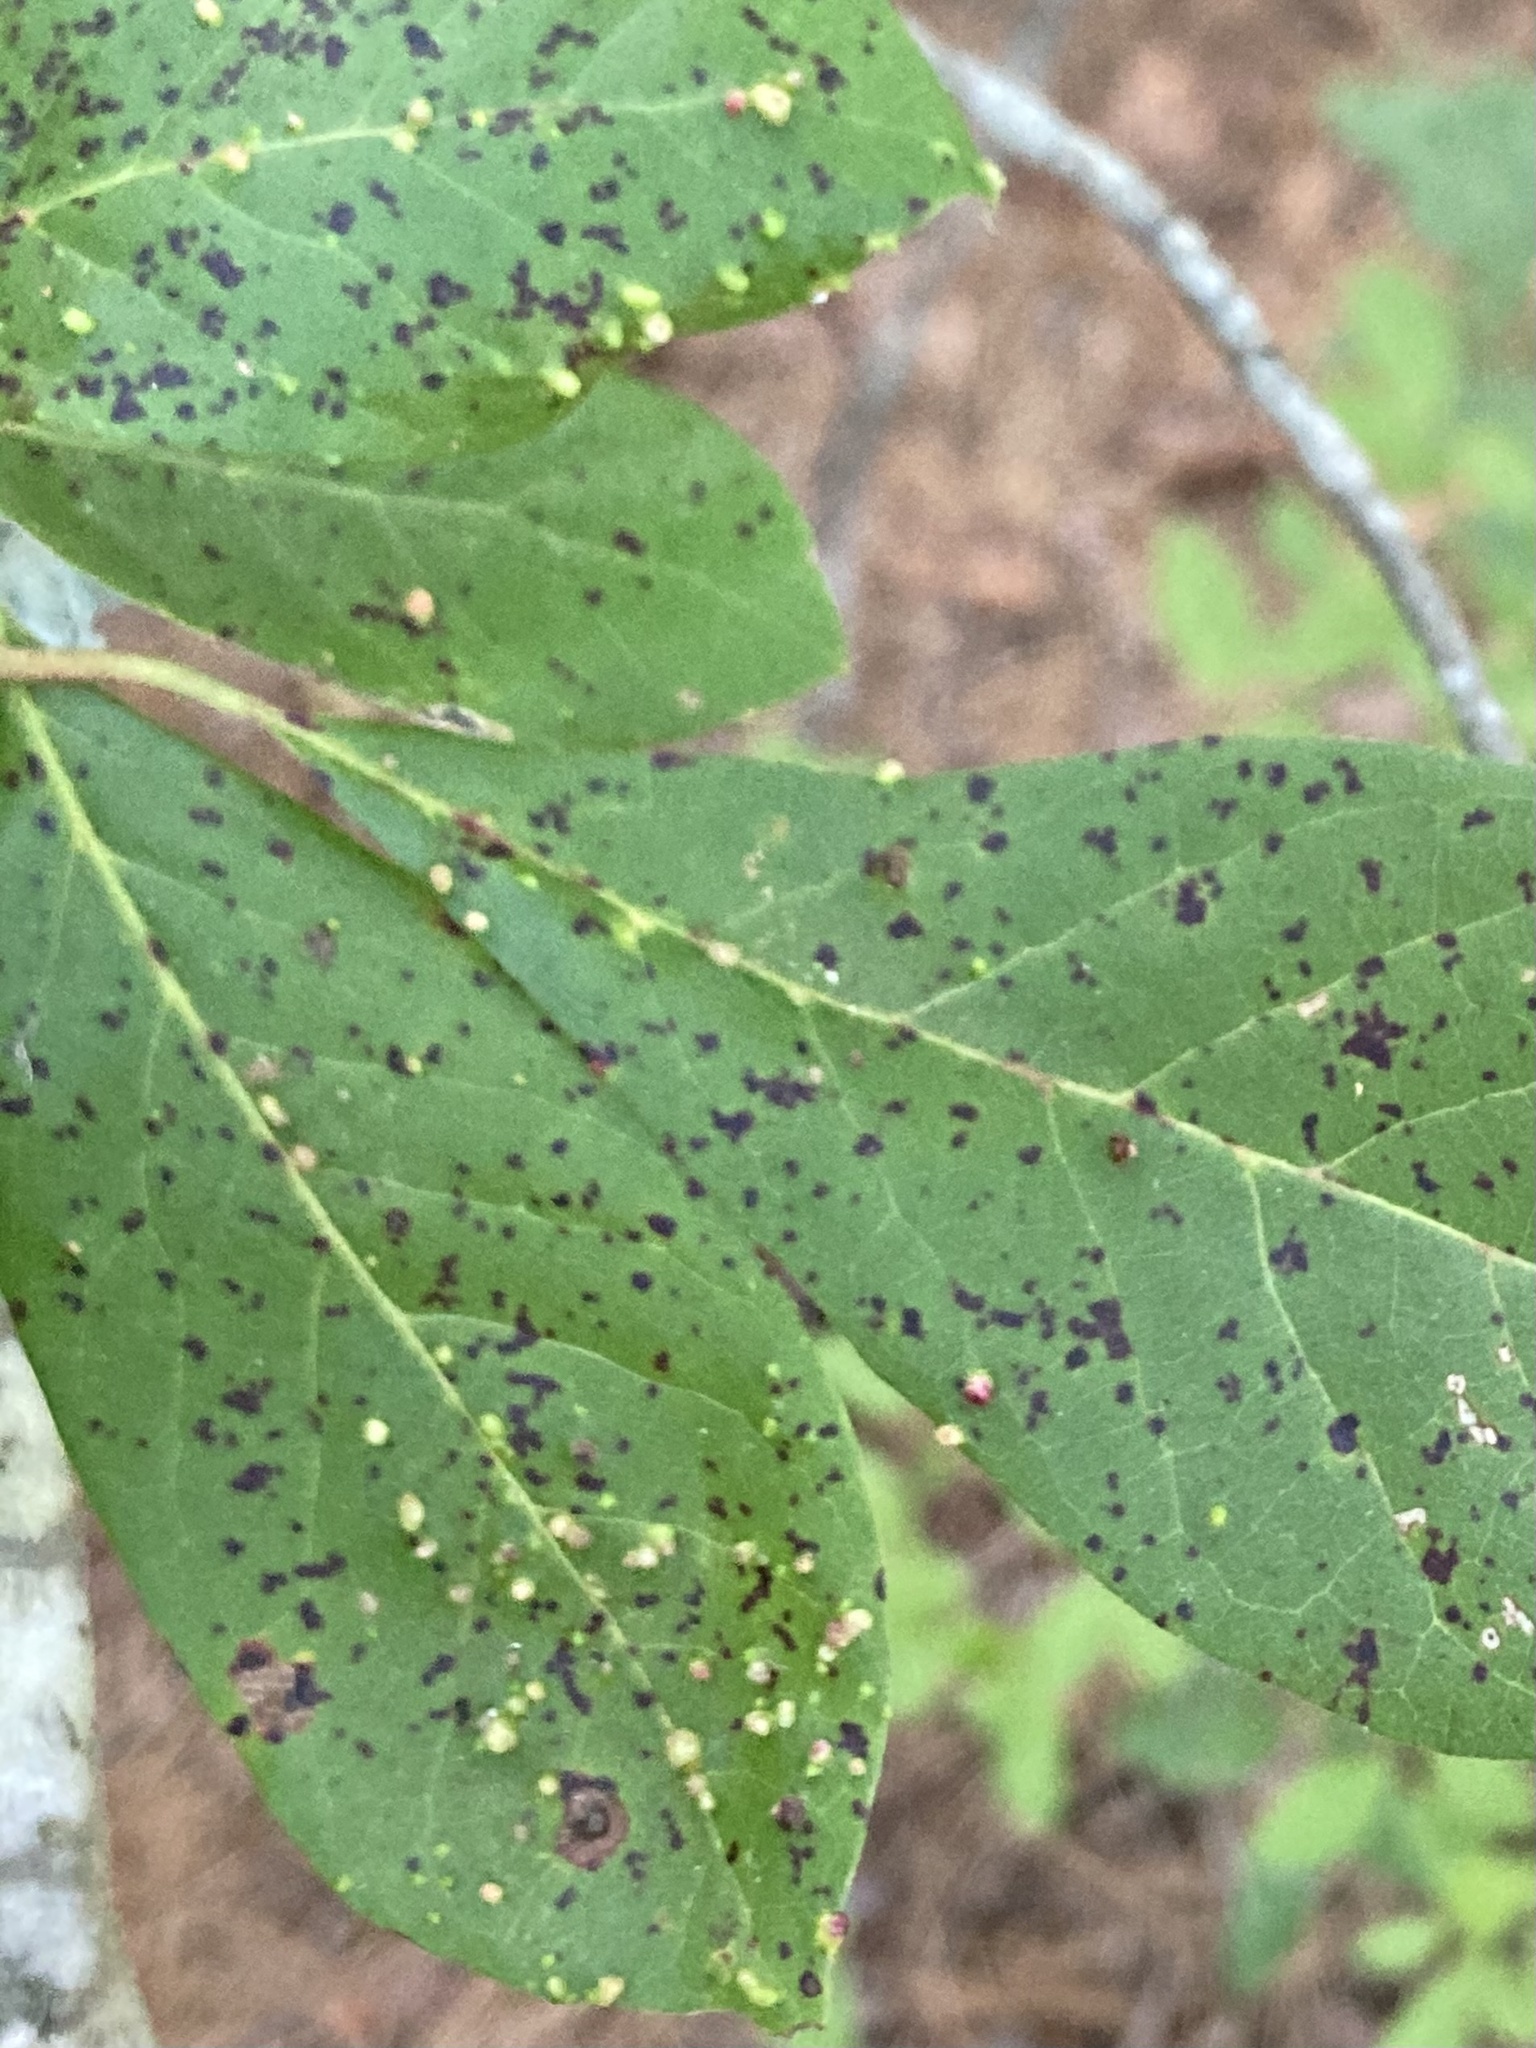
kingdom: Animalia
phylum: Arthropoda
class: Arachnida
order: Trombidiformes
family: Eriophyidae
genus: Aceria
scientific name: Aceria
